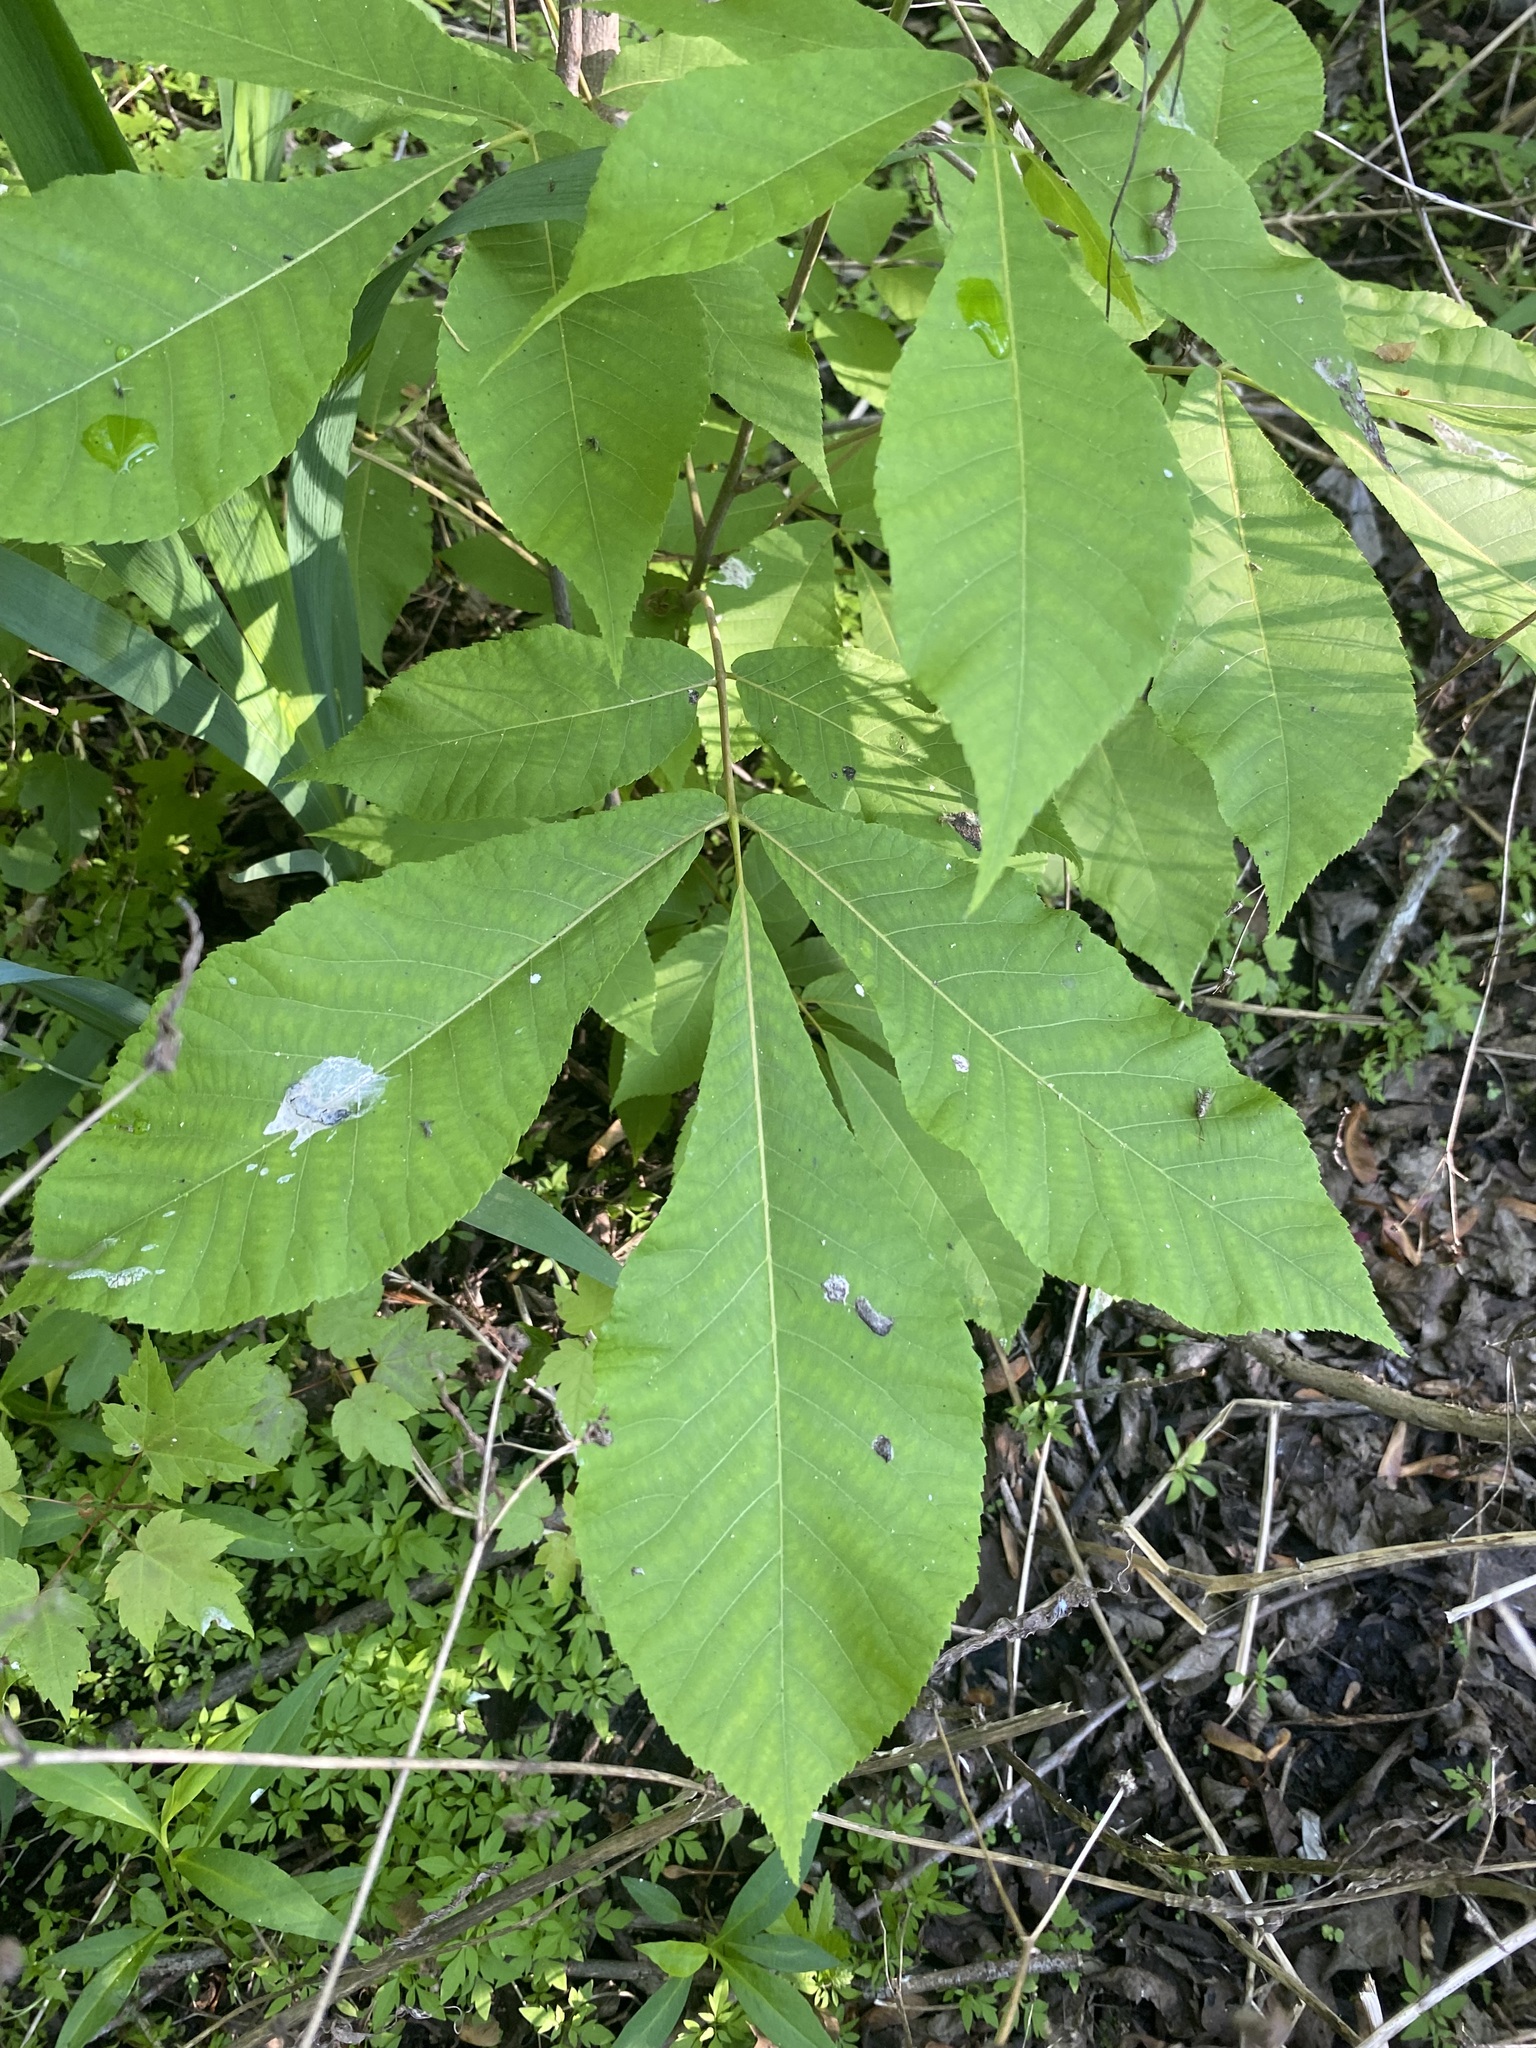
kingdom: Plantae
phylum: Tracheophyta
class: Magnoliopsida
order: Fagales
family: Juglandaceae
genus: Carya
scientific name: Carya ovata
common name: Shagbark hickory
